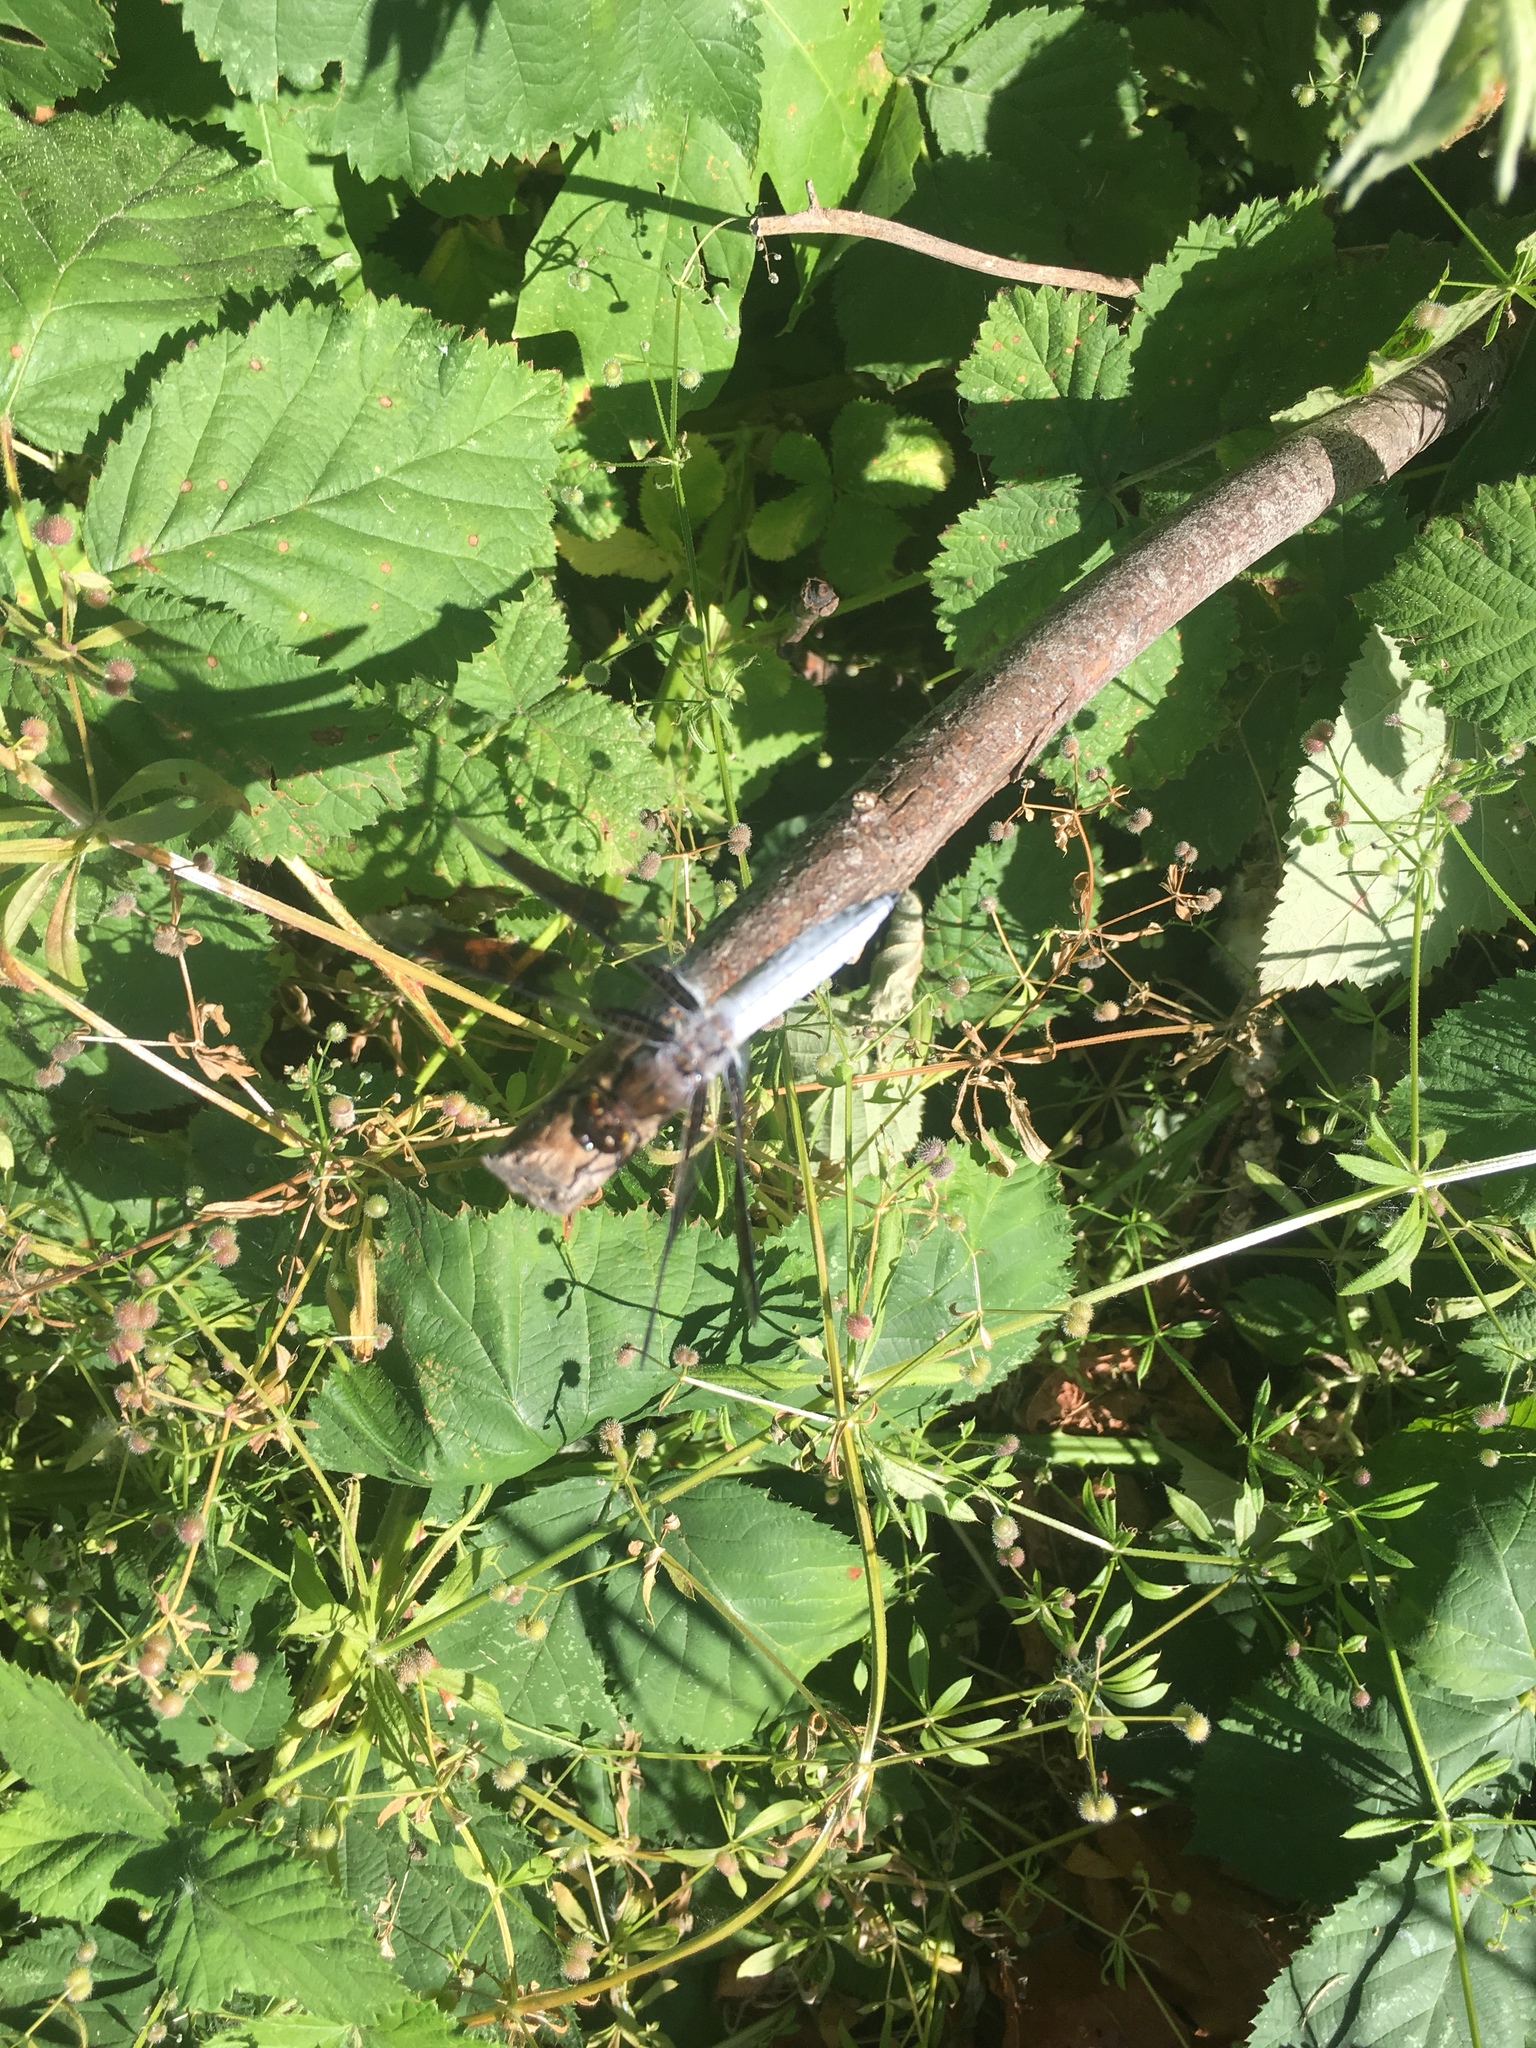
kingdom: Animalia
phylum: Arthropoda
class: Insecta
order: Odonata
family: Libellulidae
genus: Plathemis
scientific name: Plathemis lydia
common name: Common whitetail
